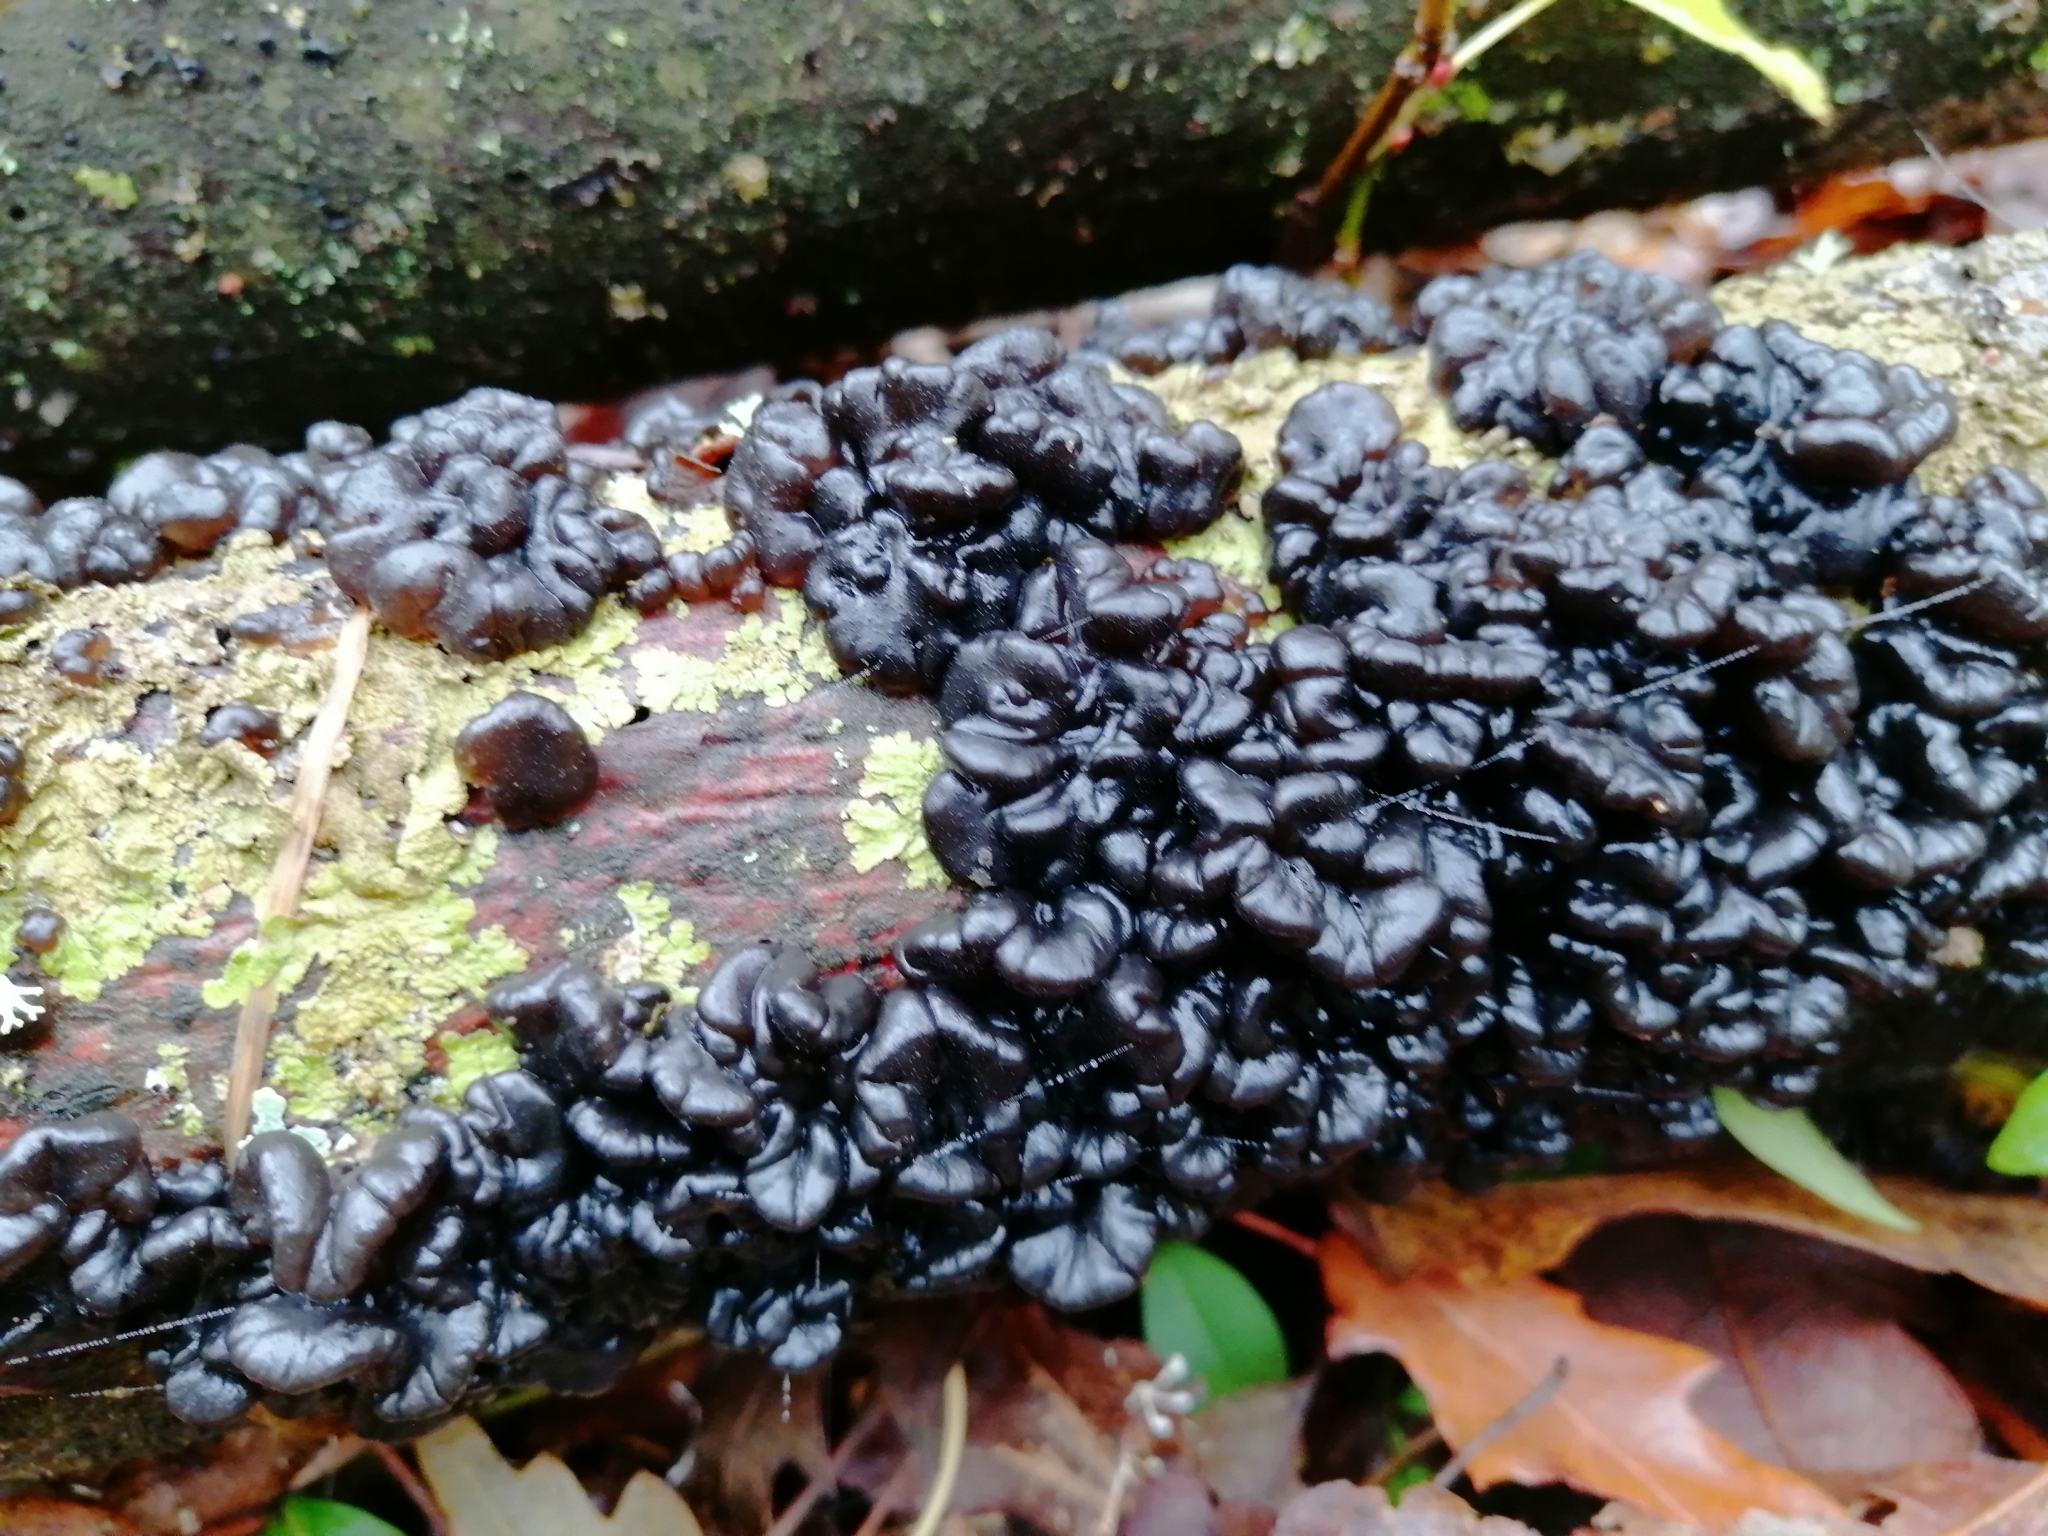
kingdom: Fungi
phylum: Basidiomycota
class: Agaricomycetes
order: Auriculariales
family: Auriculariaceae
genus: Exidia
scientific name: Exidia nigricans
